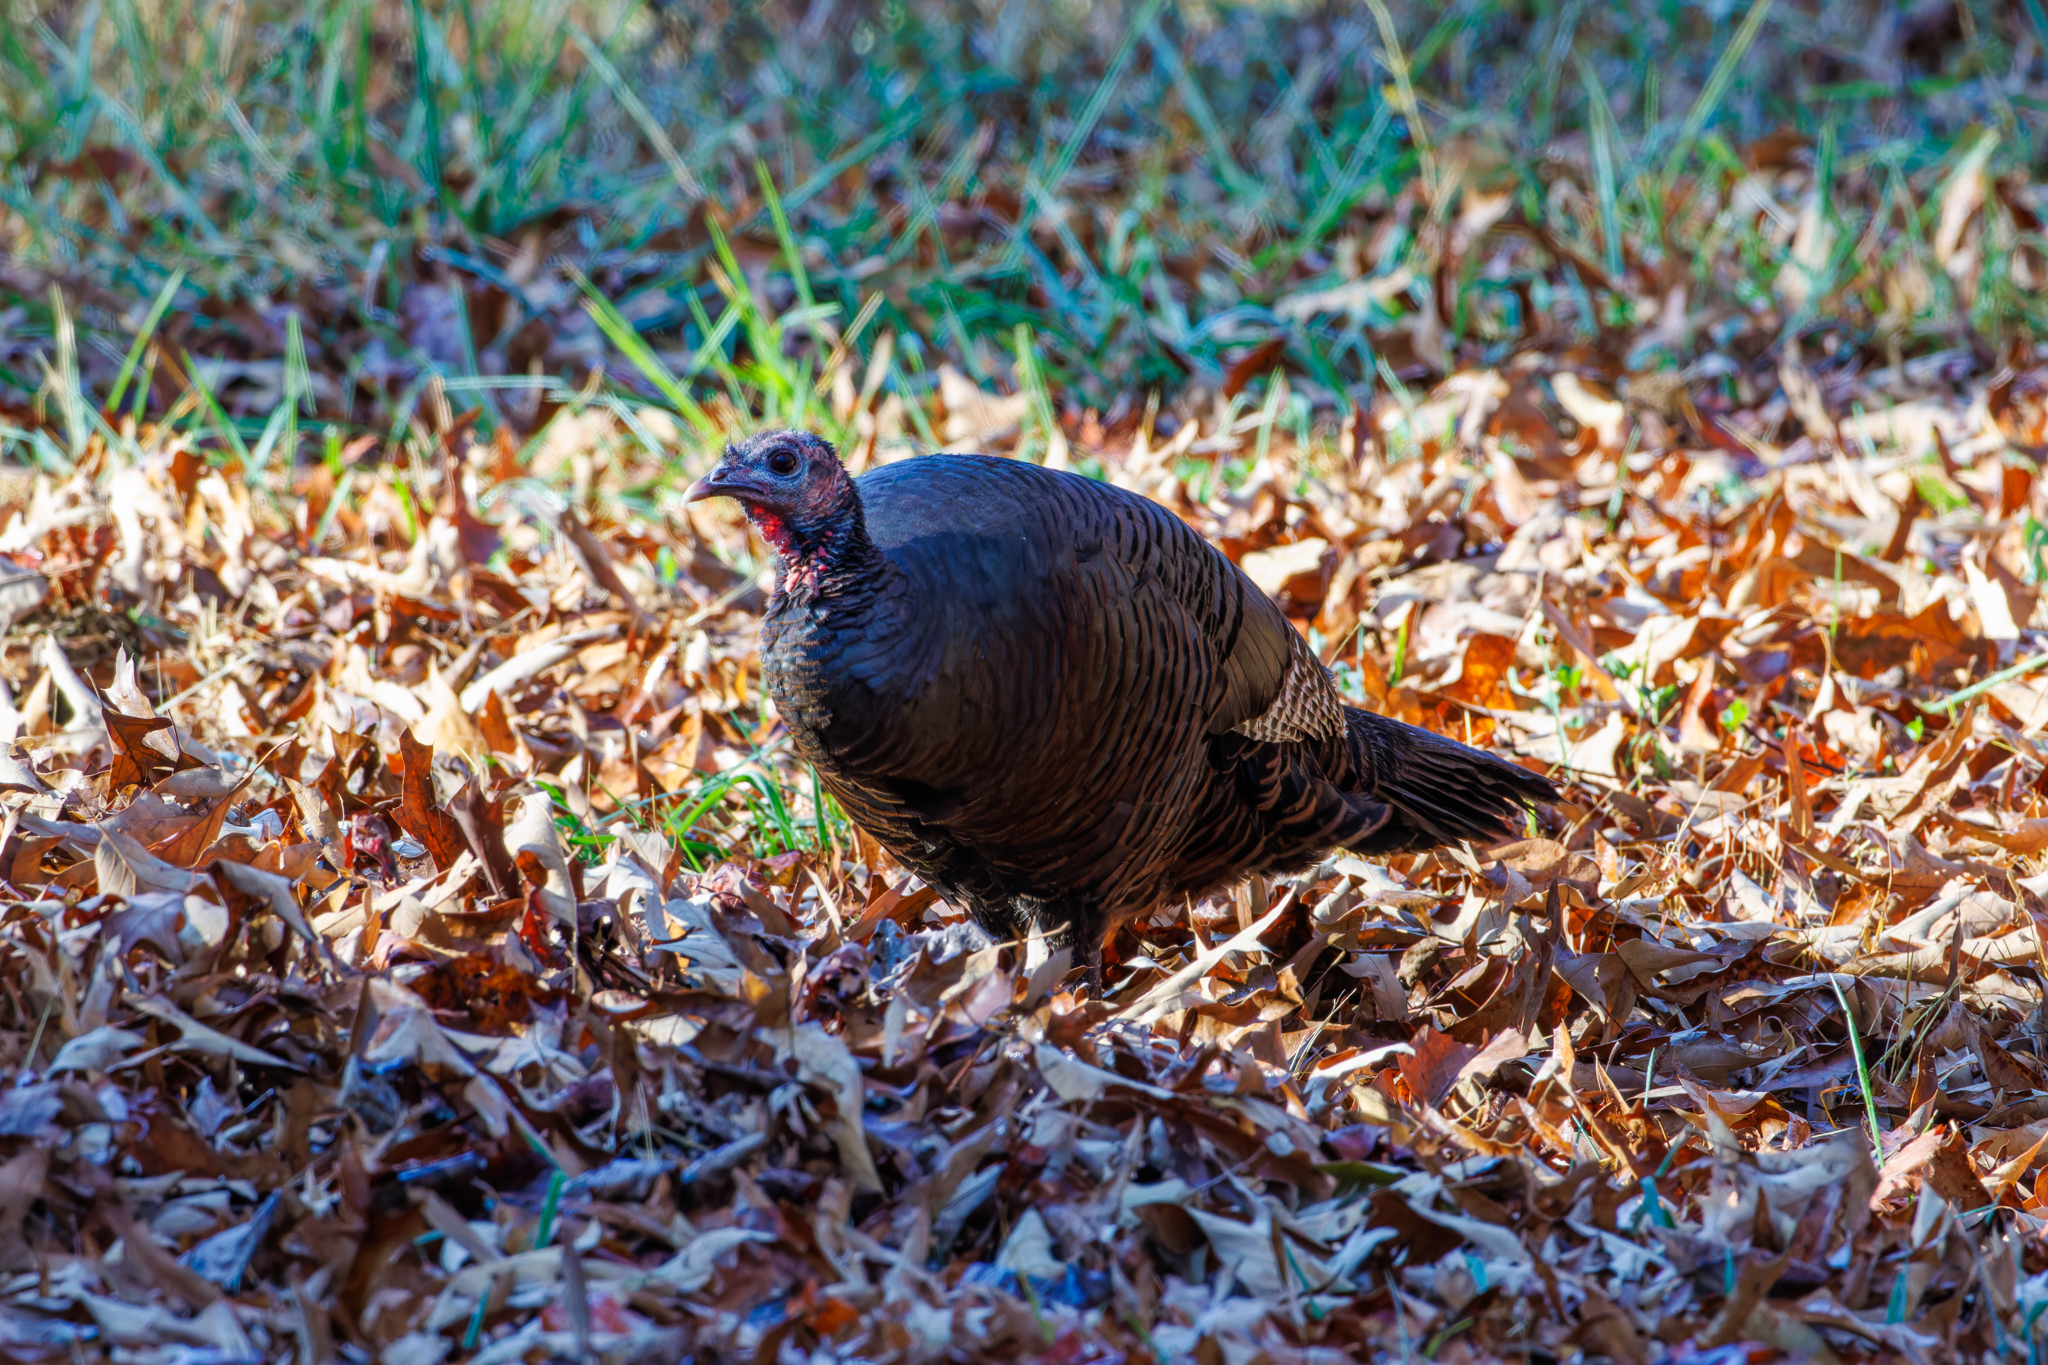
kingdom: Animalia
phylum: Chordata
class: Aves
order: Galliformes
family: Phasianidae
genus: Meleagris
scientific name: Meleagris gallopavo
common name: Wild turkey
